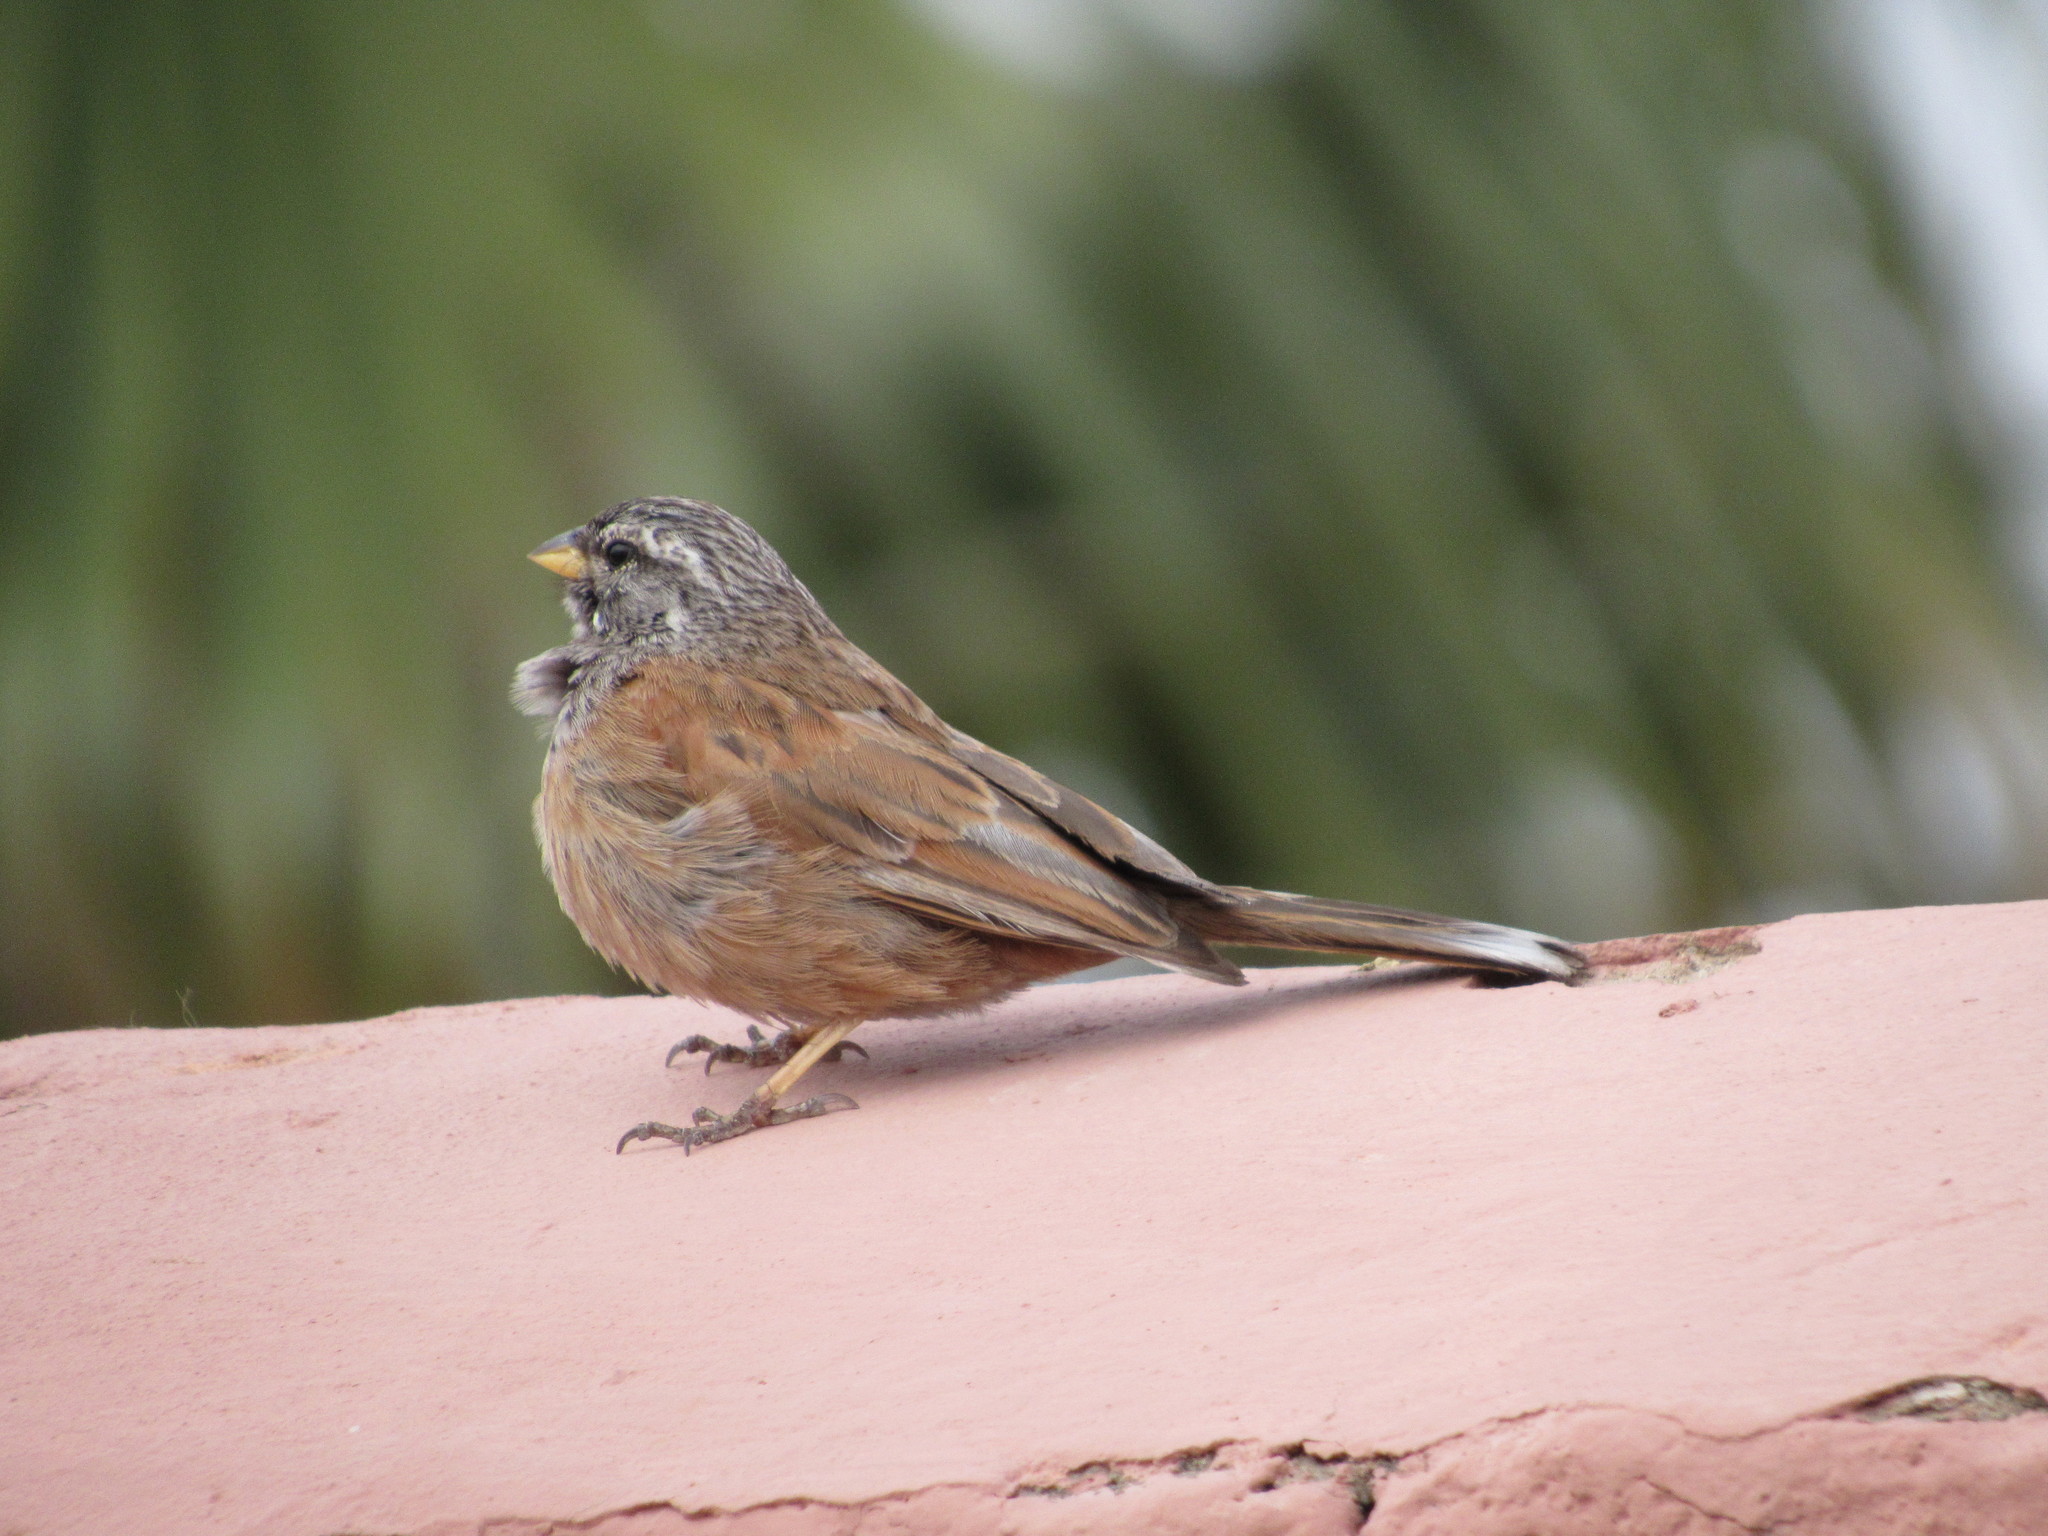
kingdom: Animalia
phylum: Chordata
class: Aves
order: Passeriformes
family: Emberizidae
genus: Emberiza
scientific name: Emberiza sahari
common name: House bunting
